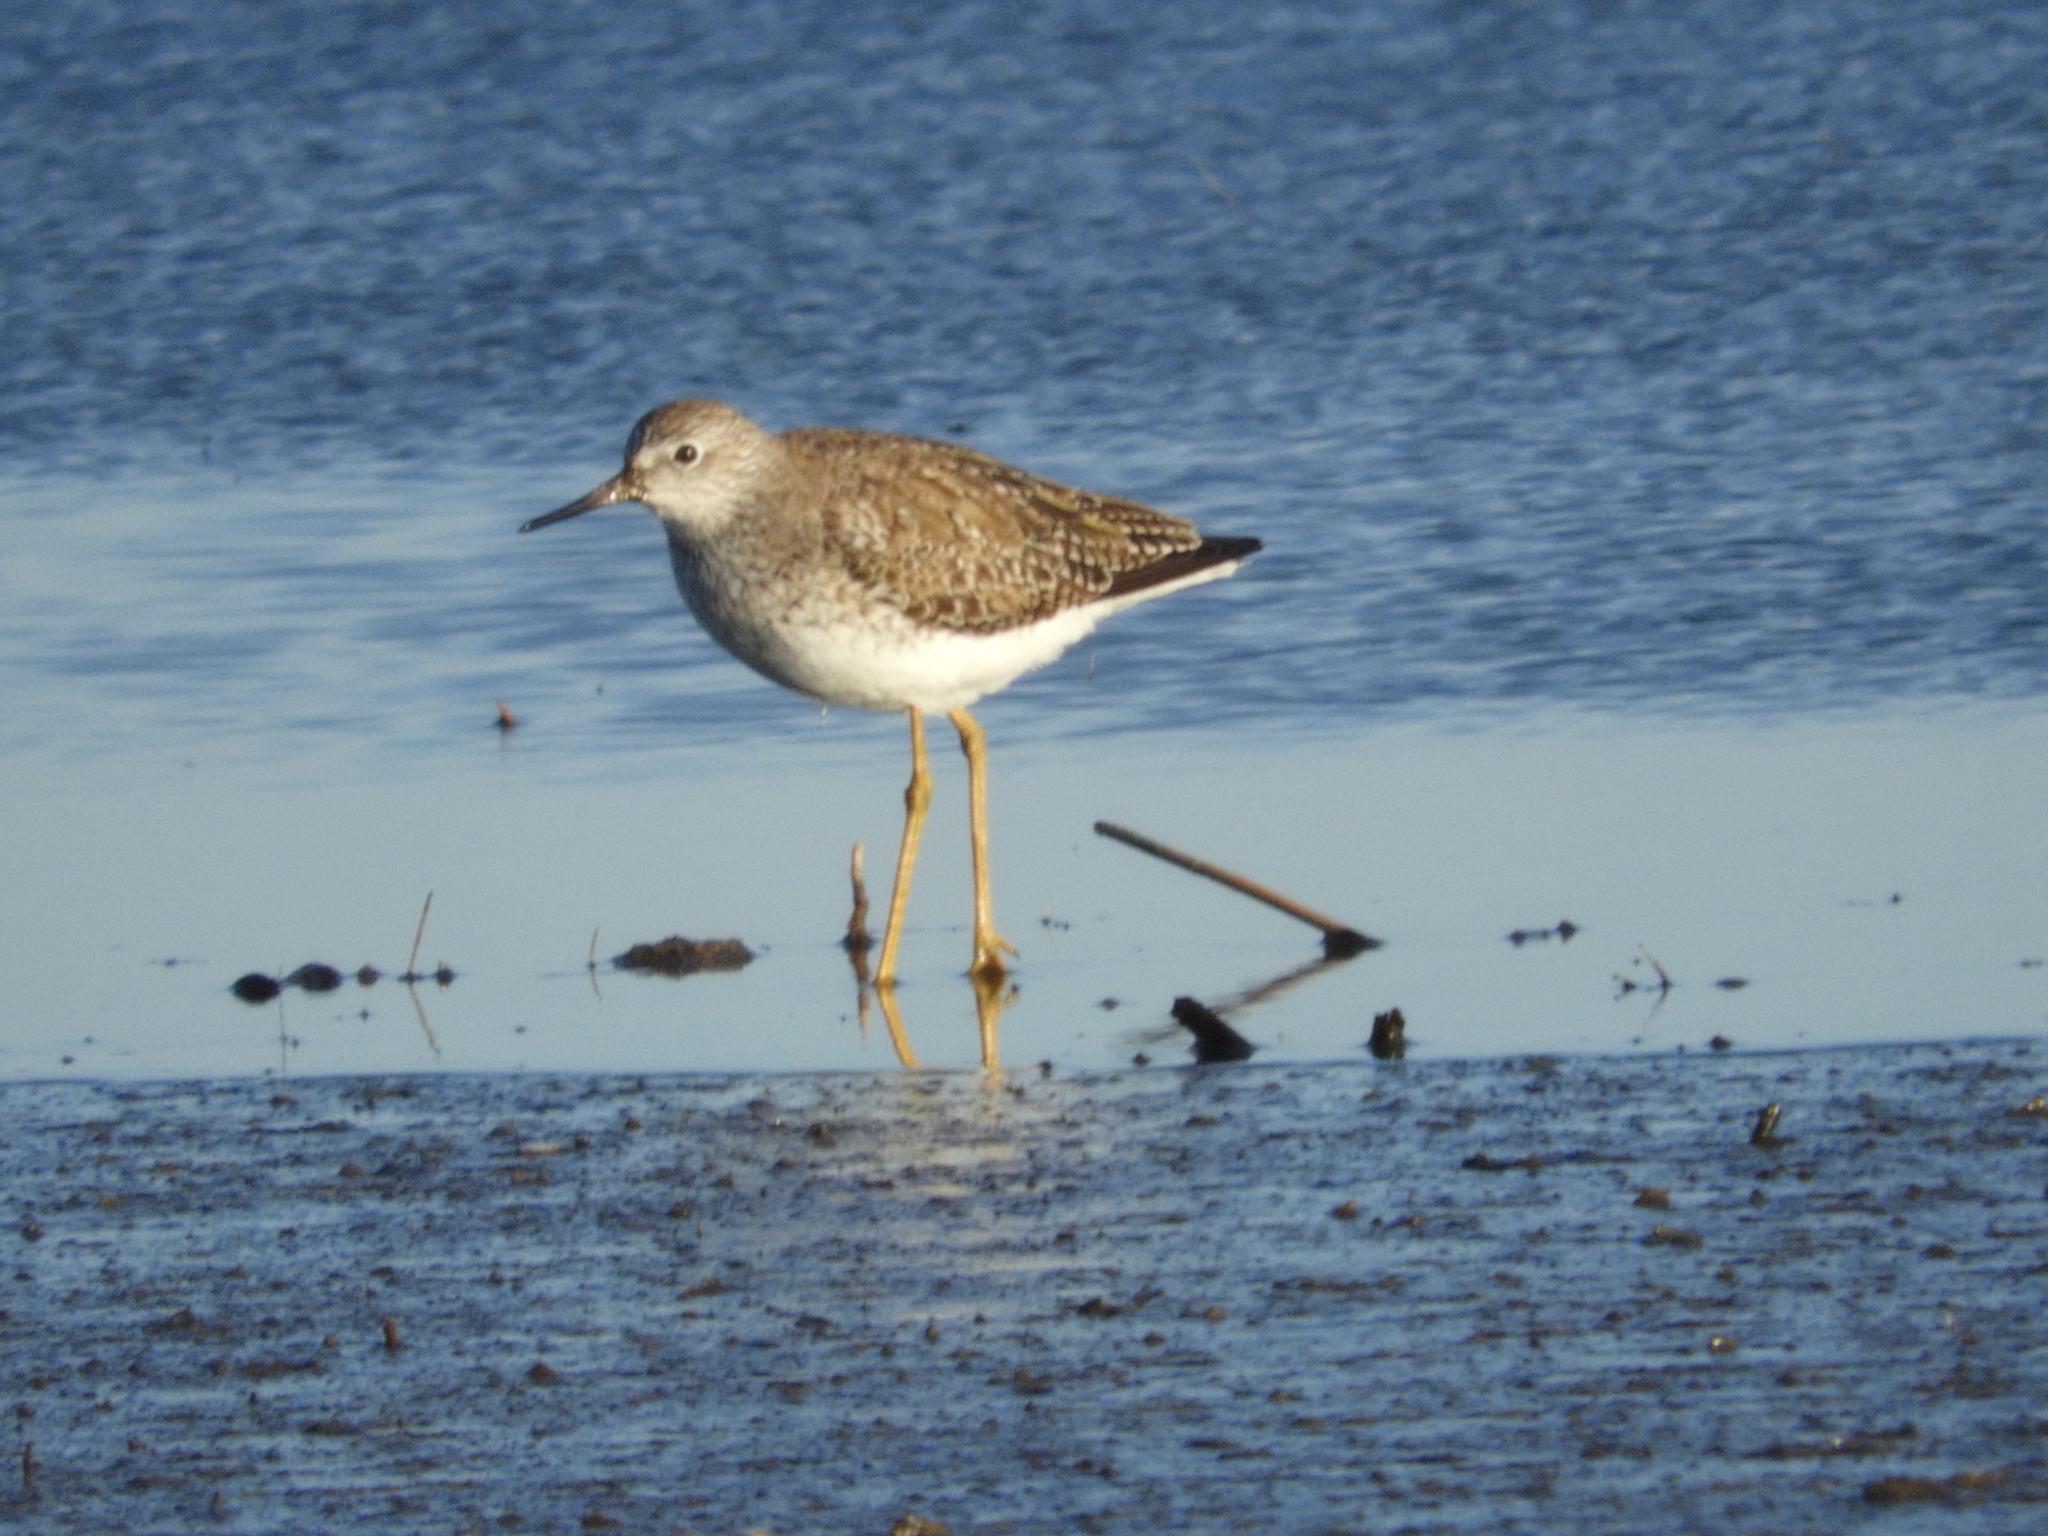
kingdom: Animalia
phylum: Chordata
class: Aves
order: Charadriiformes
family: Scolopacidae
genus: Tringa
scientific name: Tringa flavipes
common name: Lesser yellowlegs
